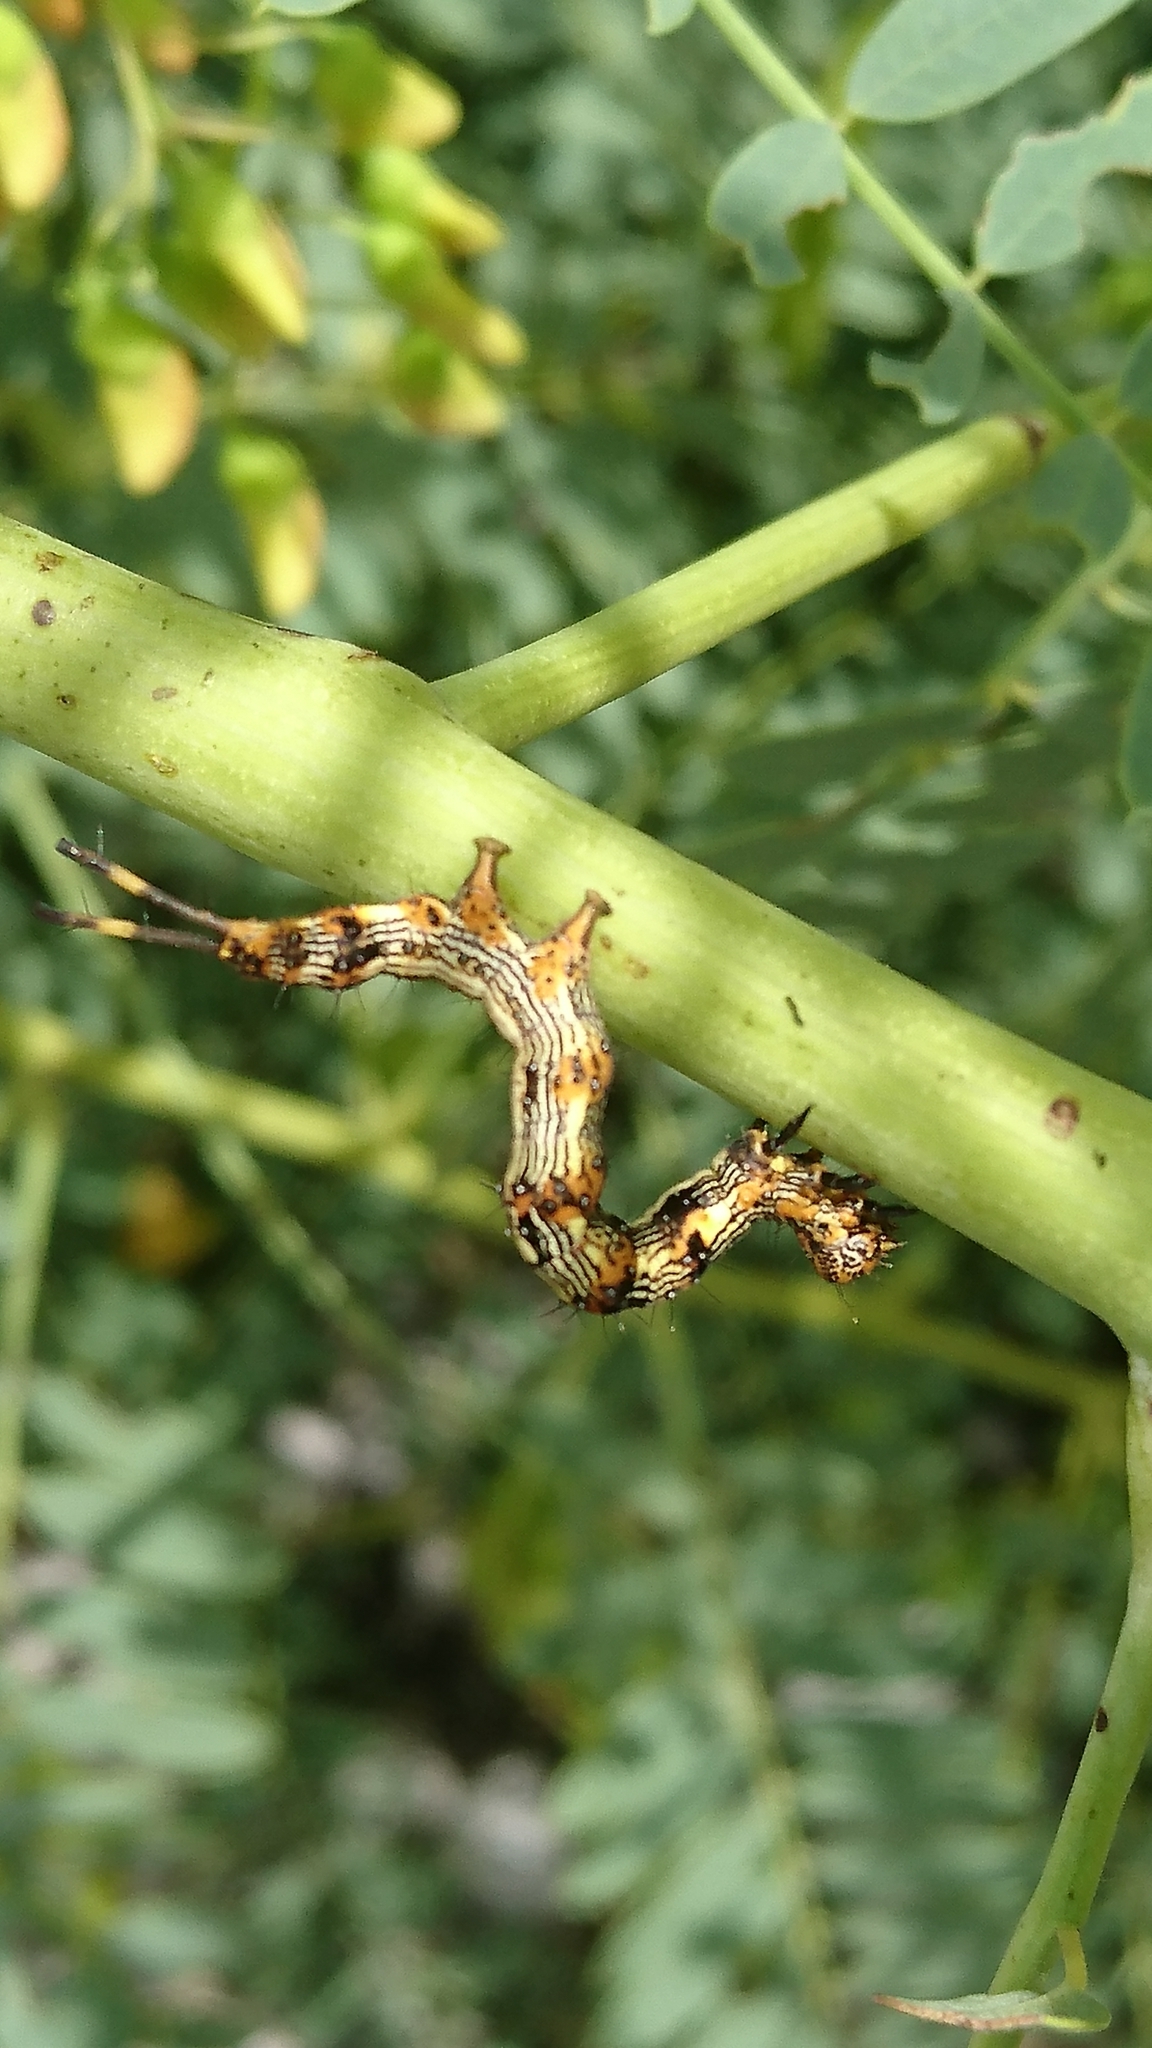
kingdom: Animalia
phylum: Arthropoda
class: Insecta
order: Lepidoptera
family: Erebidae
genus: Selenisa
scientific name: Selenisa sueroides
